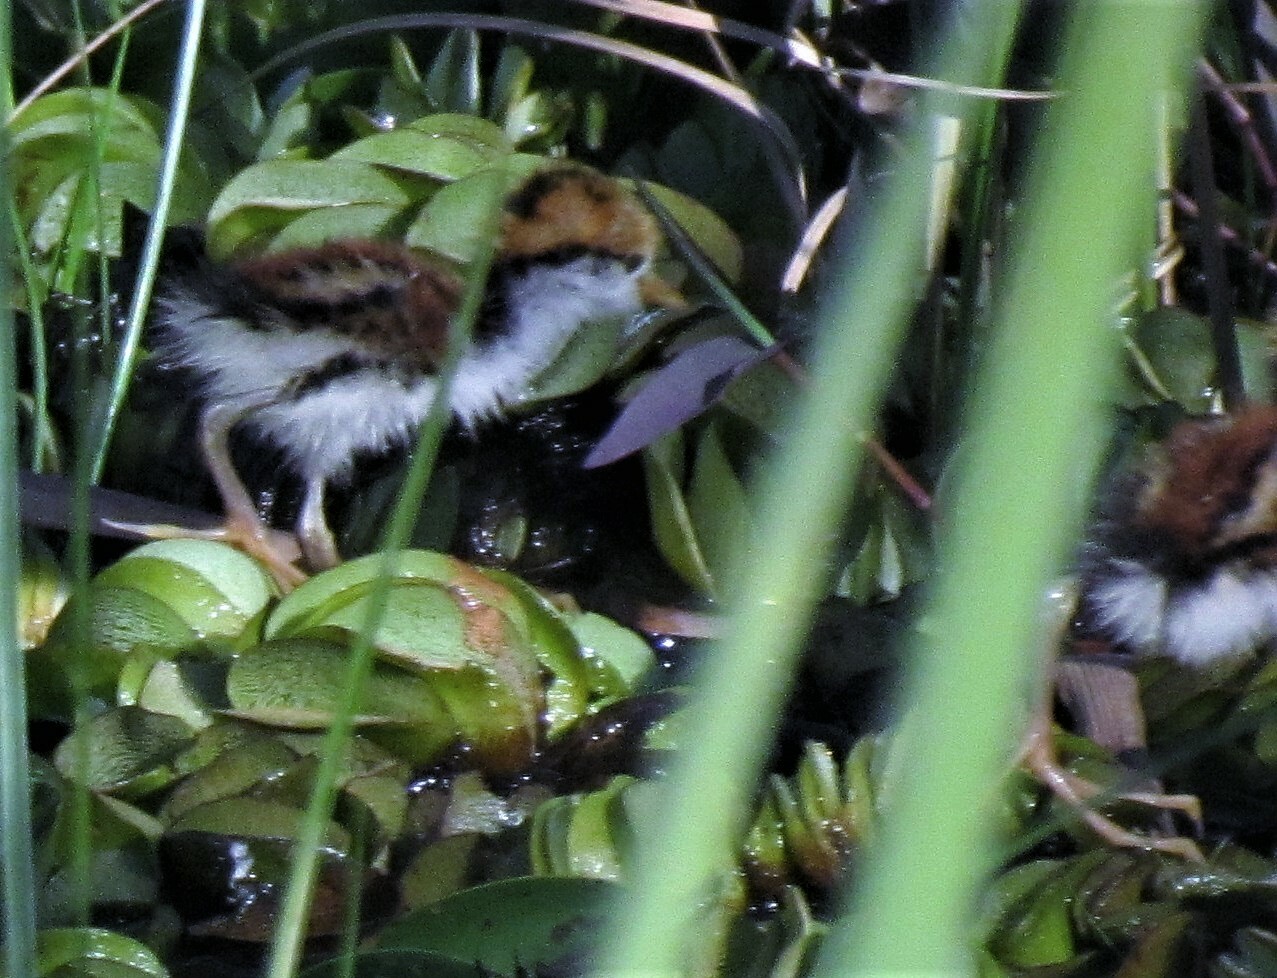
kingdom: Animalia
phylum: Chordata
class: Aves
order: Charadriiformes
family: Jacanidae
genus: Jacana
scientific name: Jacana jacana
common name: Wattled jacana
